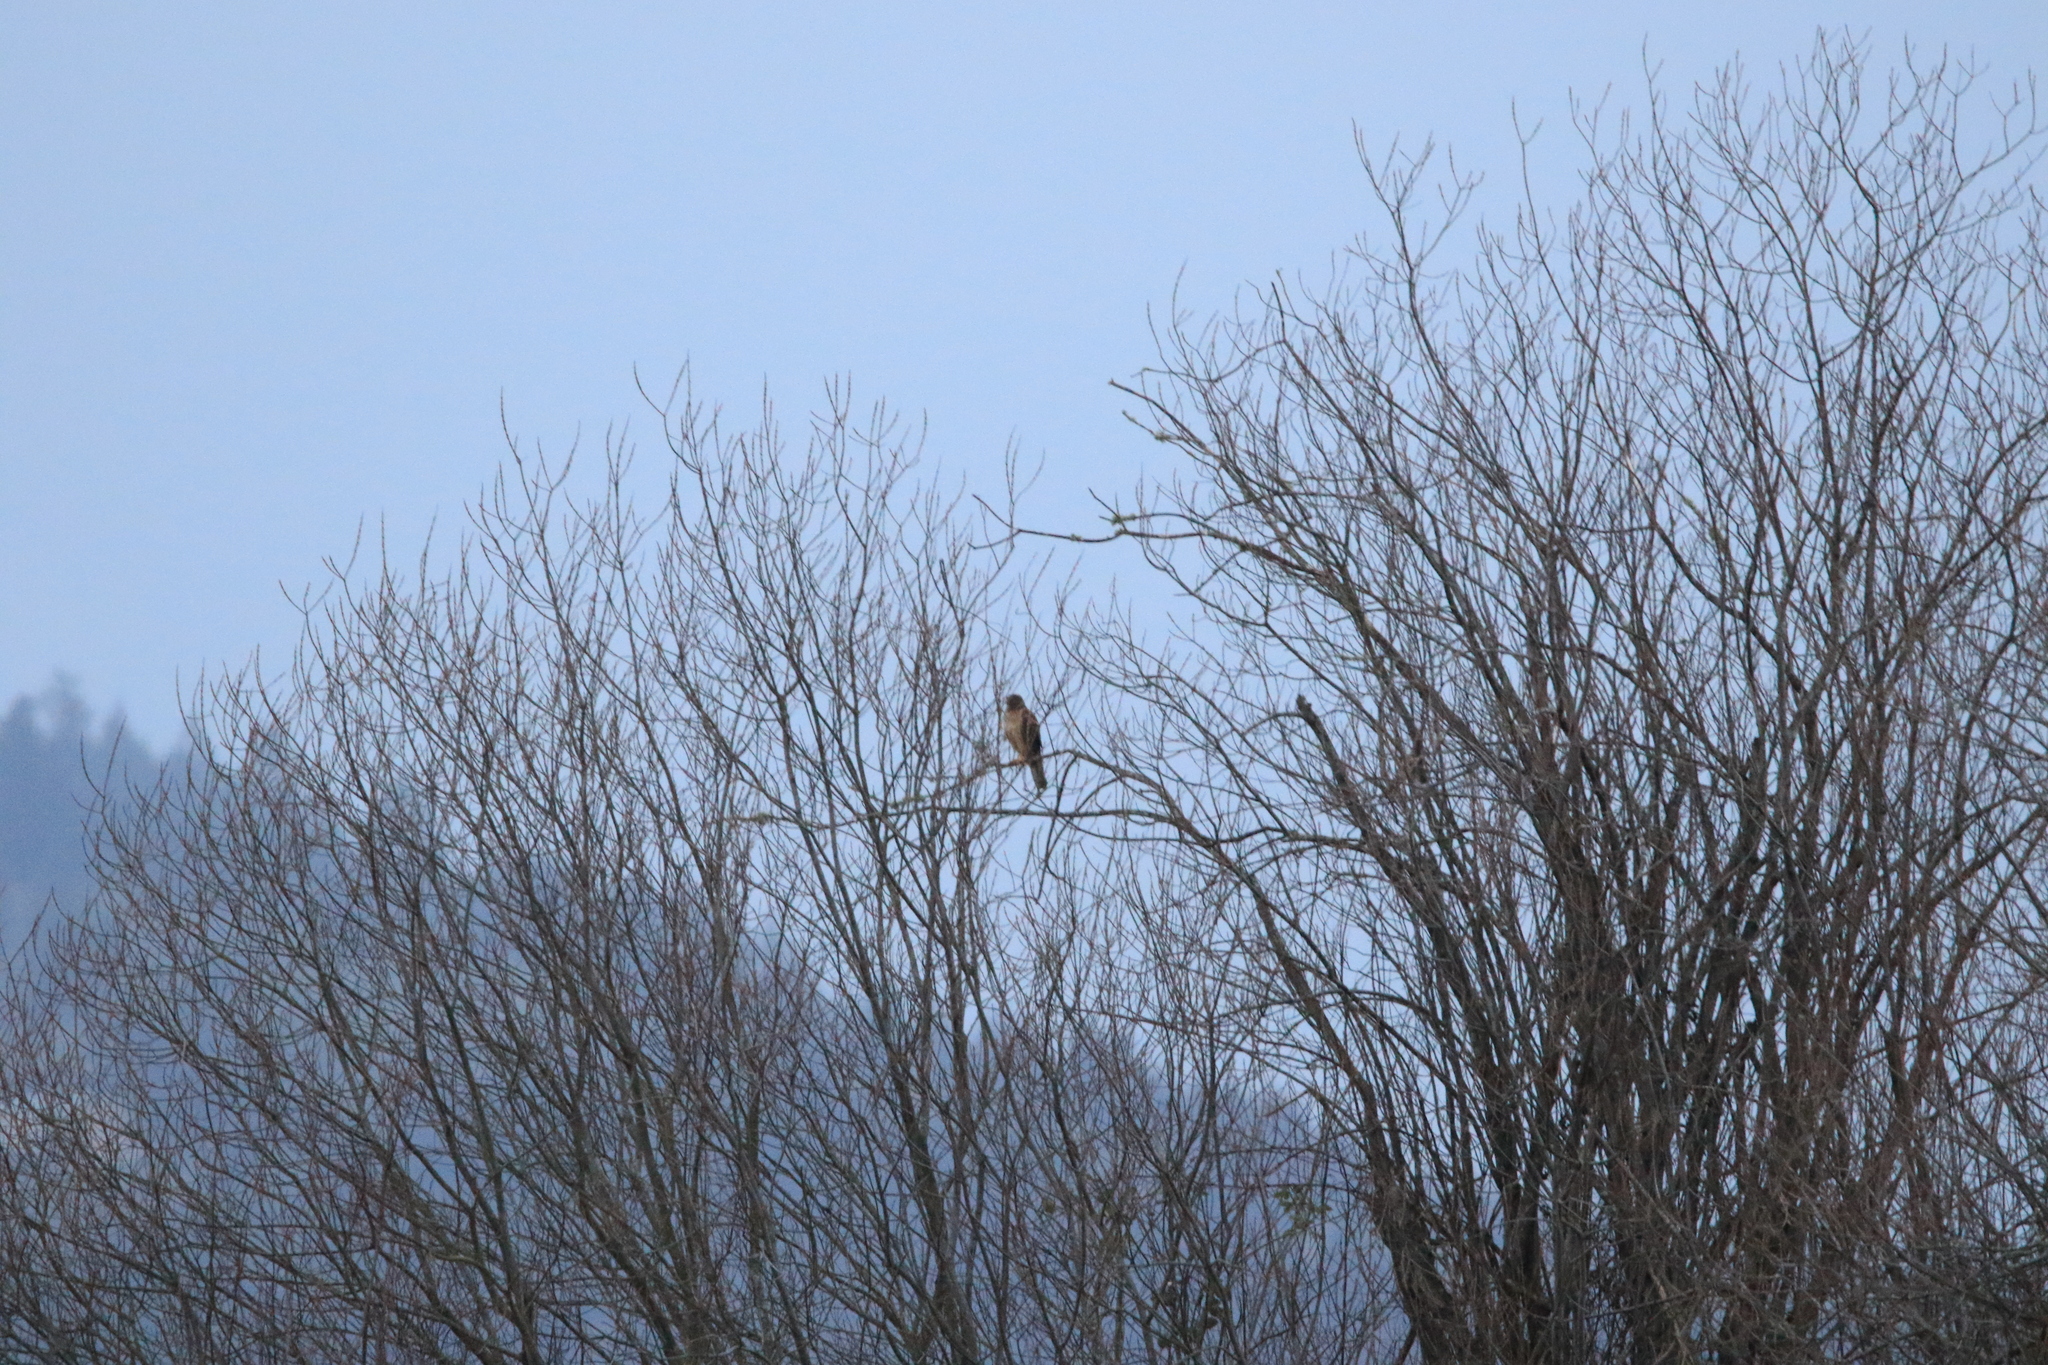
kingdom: Animalia
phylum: Chordata
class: Aves
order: Accipitriformes
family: Accipitridae
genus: Circus
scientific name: Circus cyaneus
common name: Hen harrier
